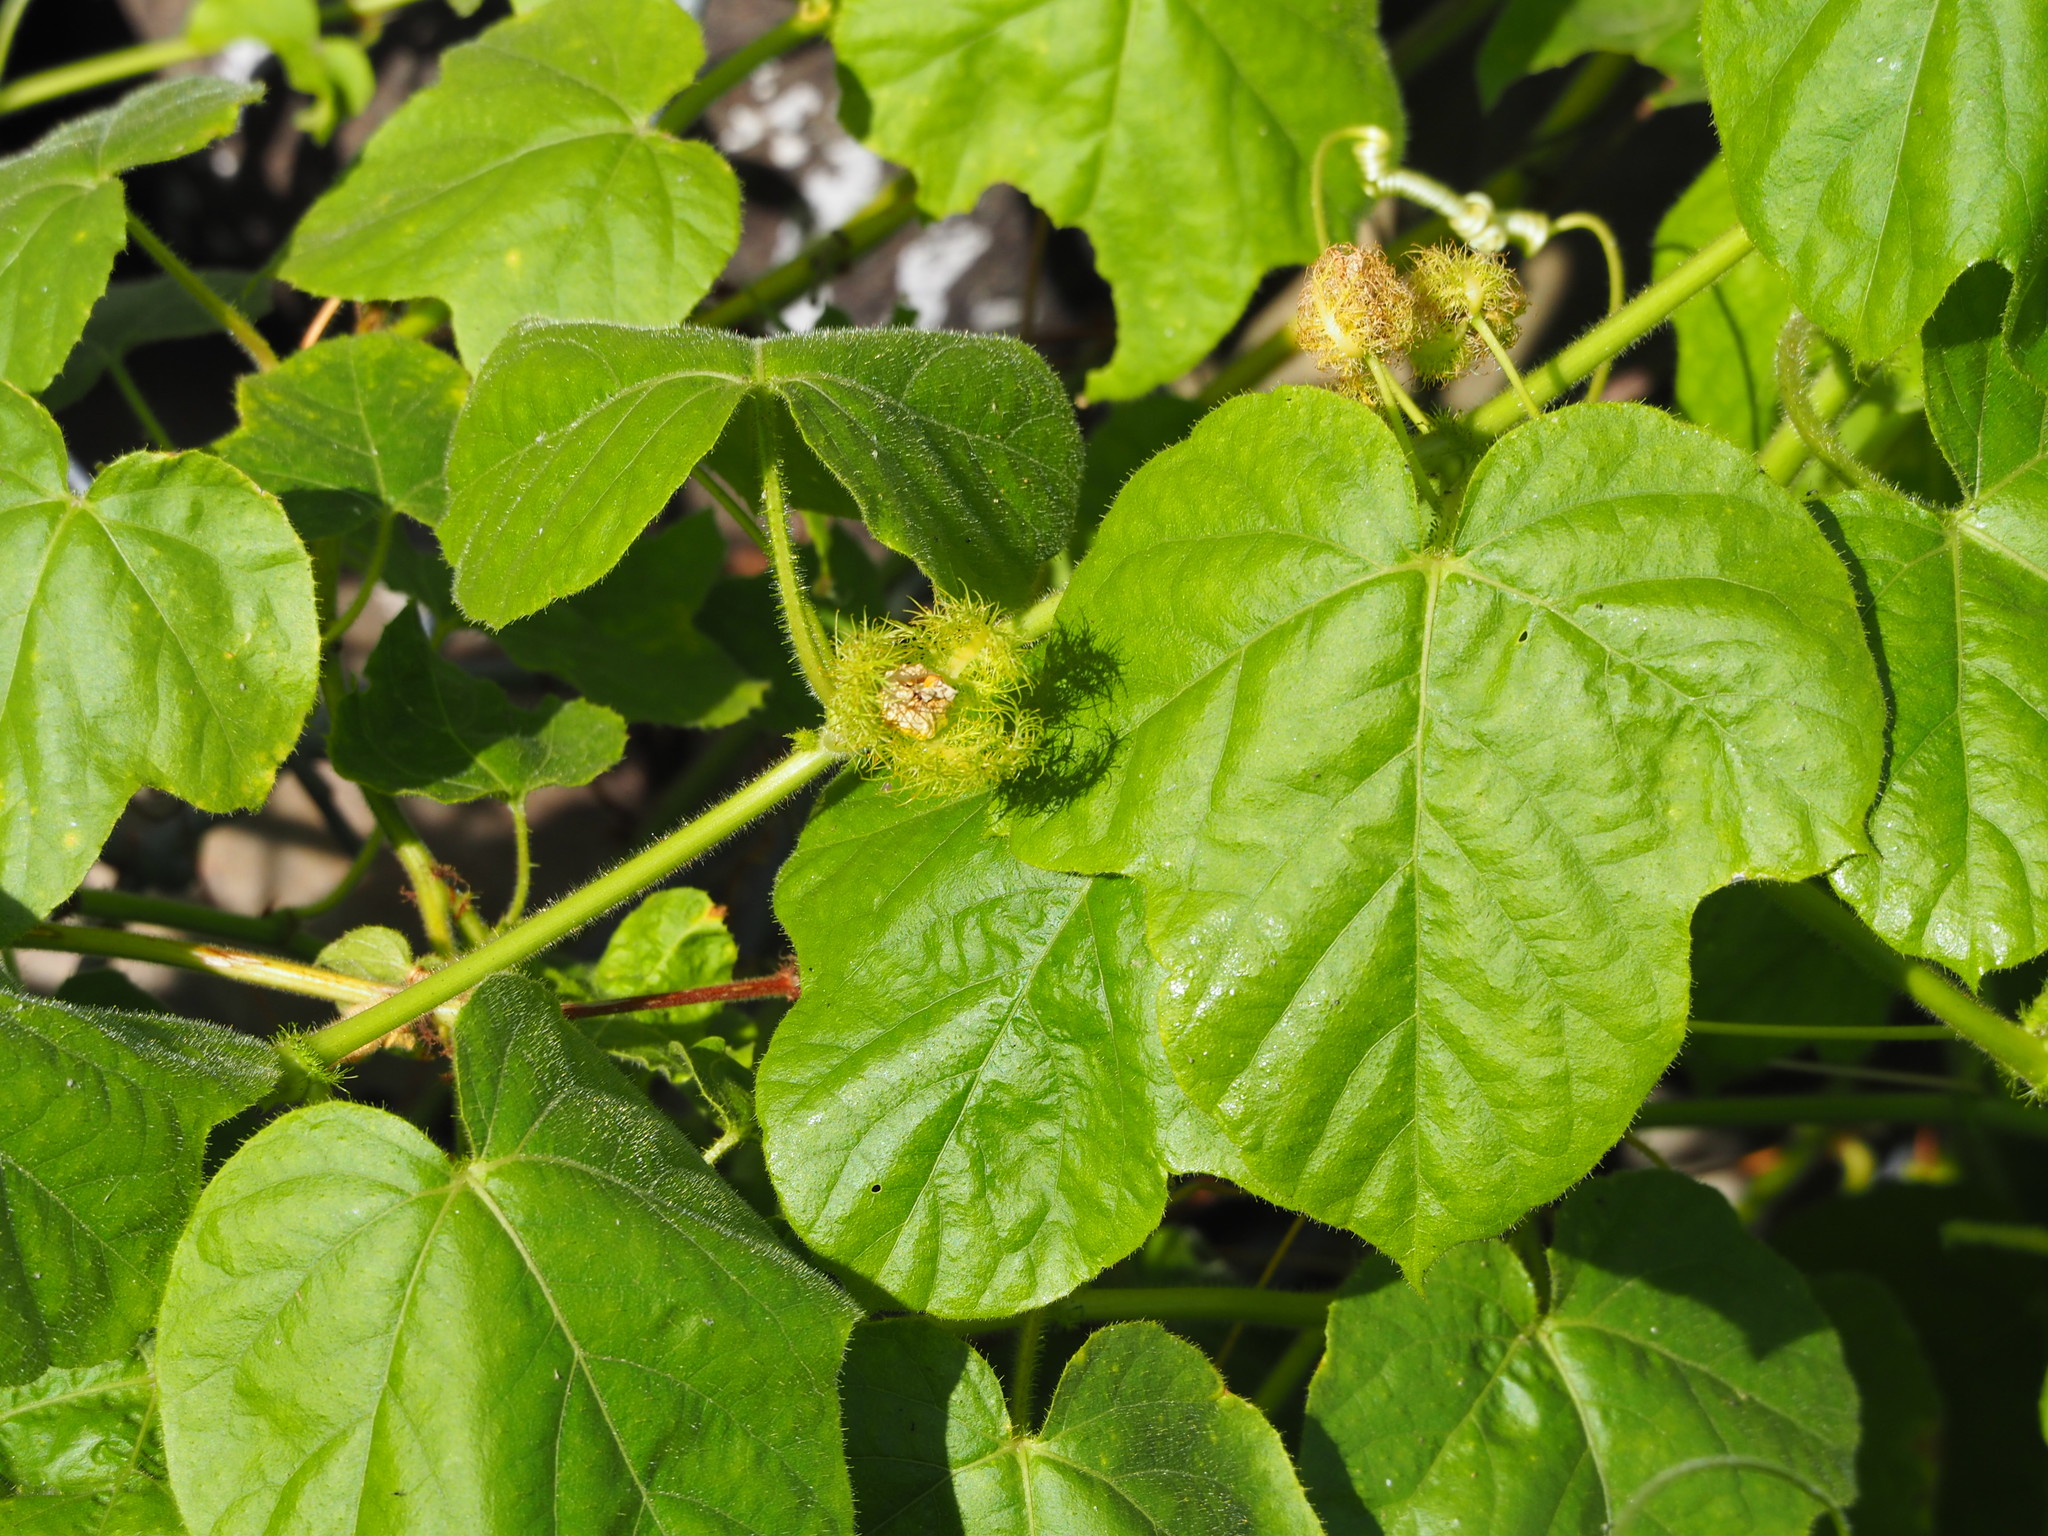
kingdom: Plantae
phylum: Tracheophyta
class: Magnoliopsida
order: Malpighiales
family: Passifloraceae
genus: Passiflora
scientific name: Passiflora vesicaria
